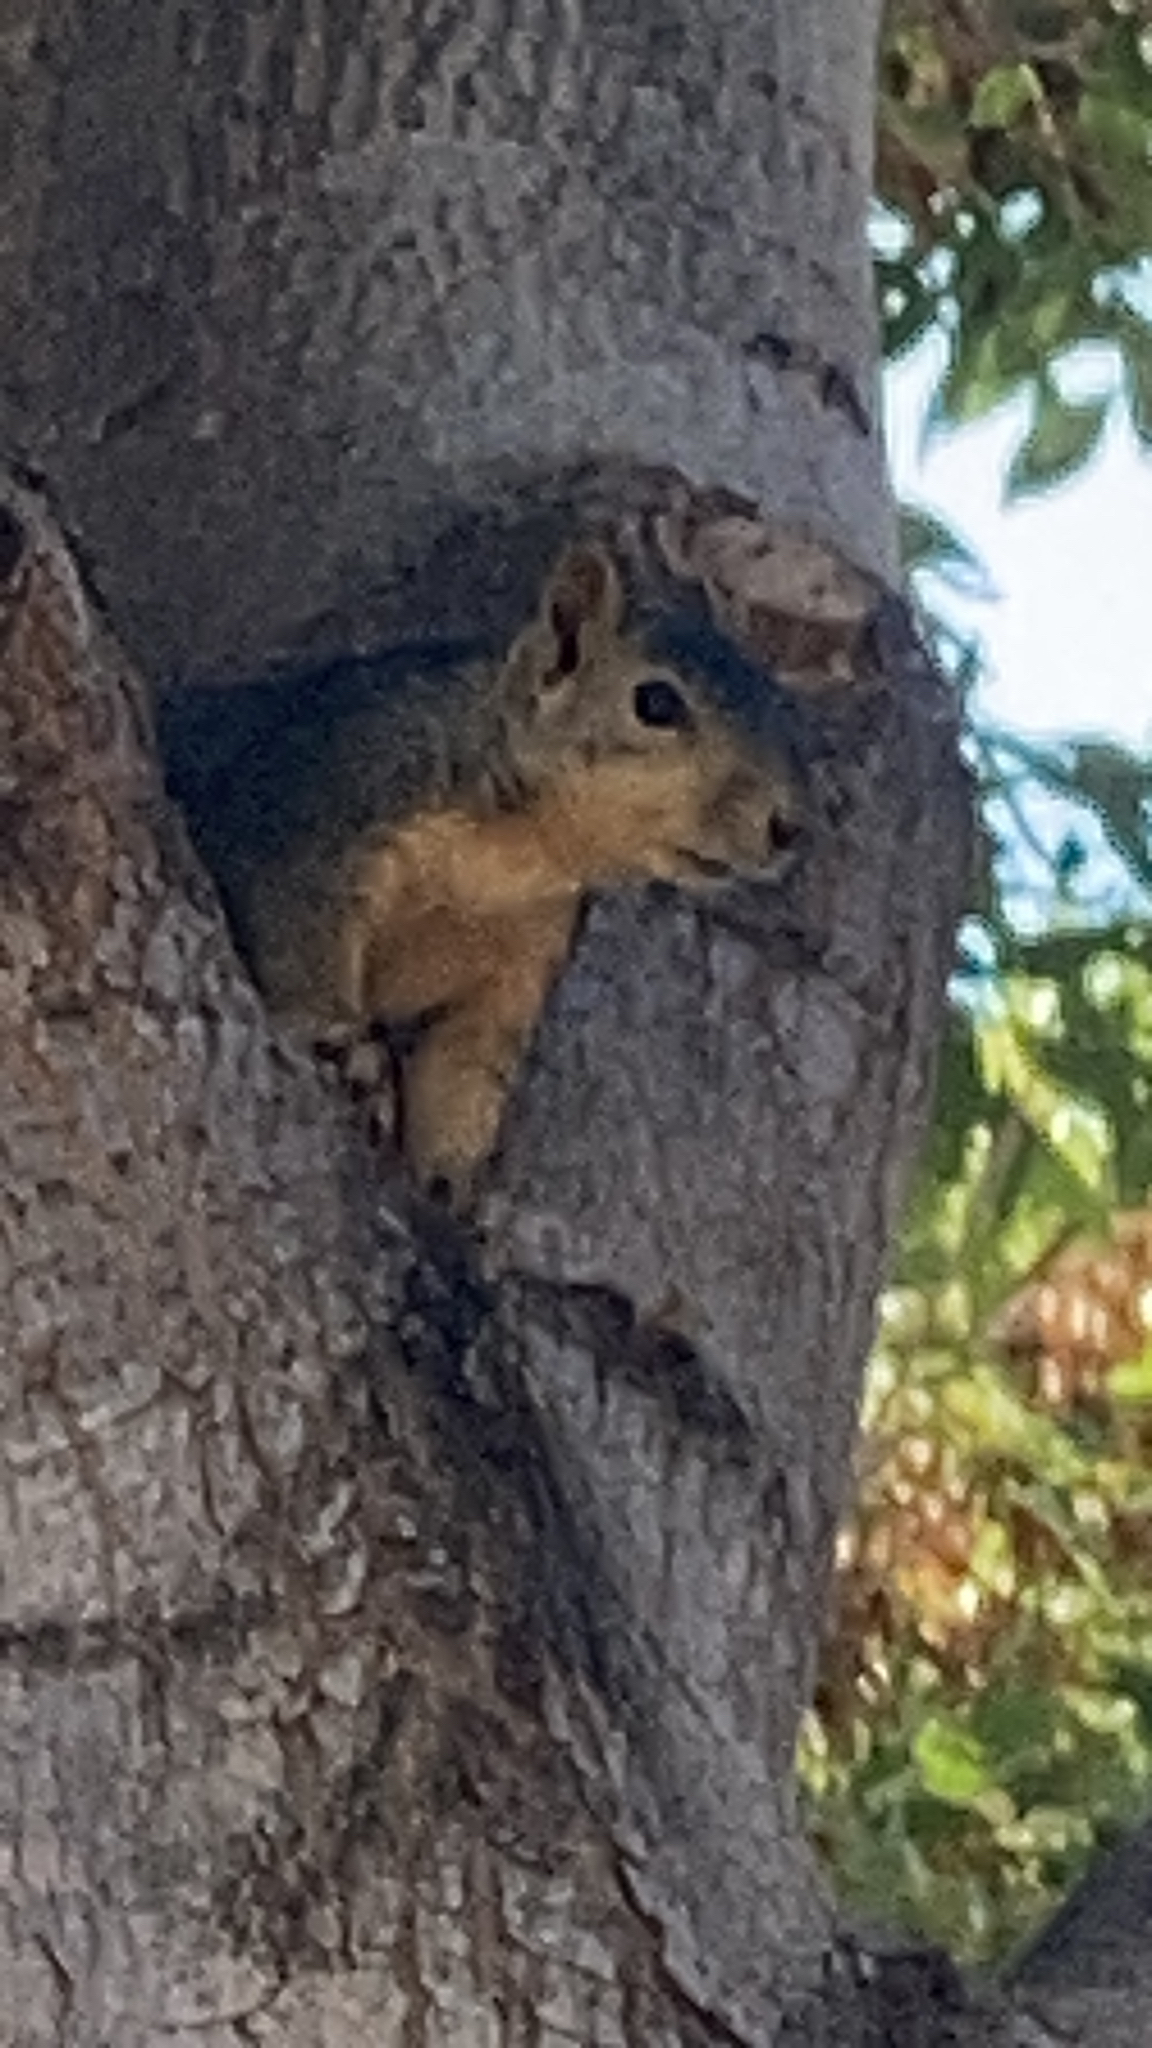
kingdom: Animalia
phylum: Chordata
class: Mammalia
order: Rodentia
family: Sciuridae
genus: Sciurus
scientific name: Sciurus niger
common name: Fox squirrel
